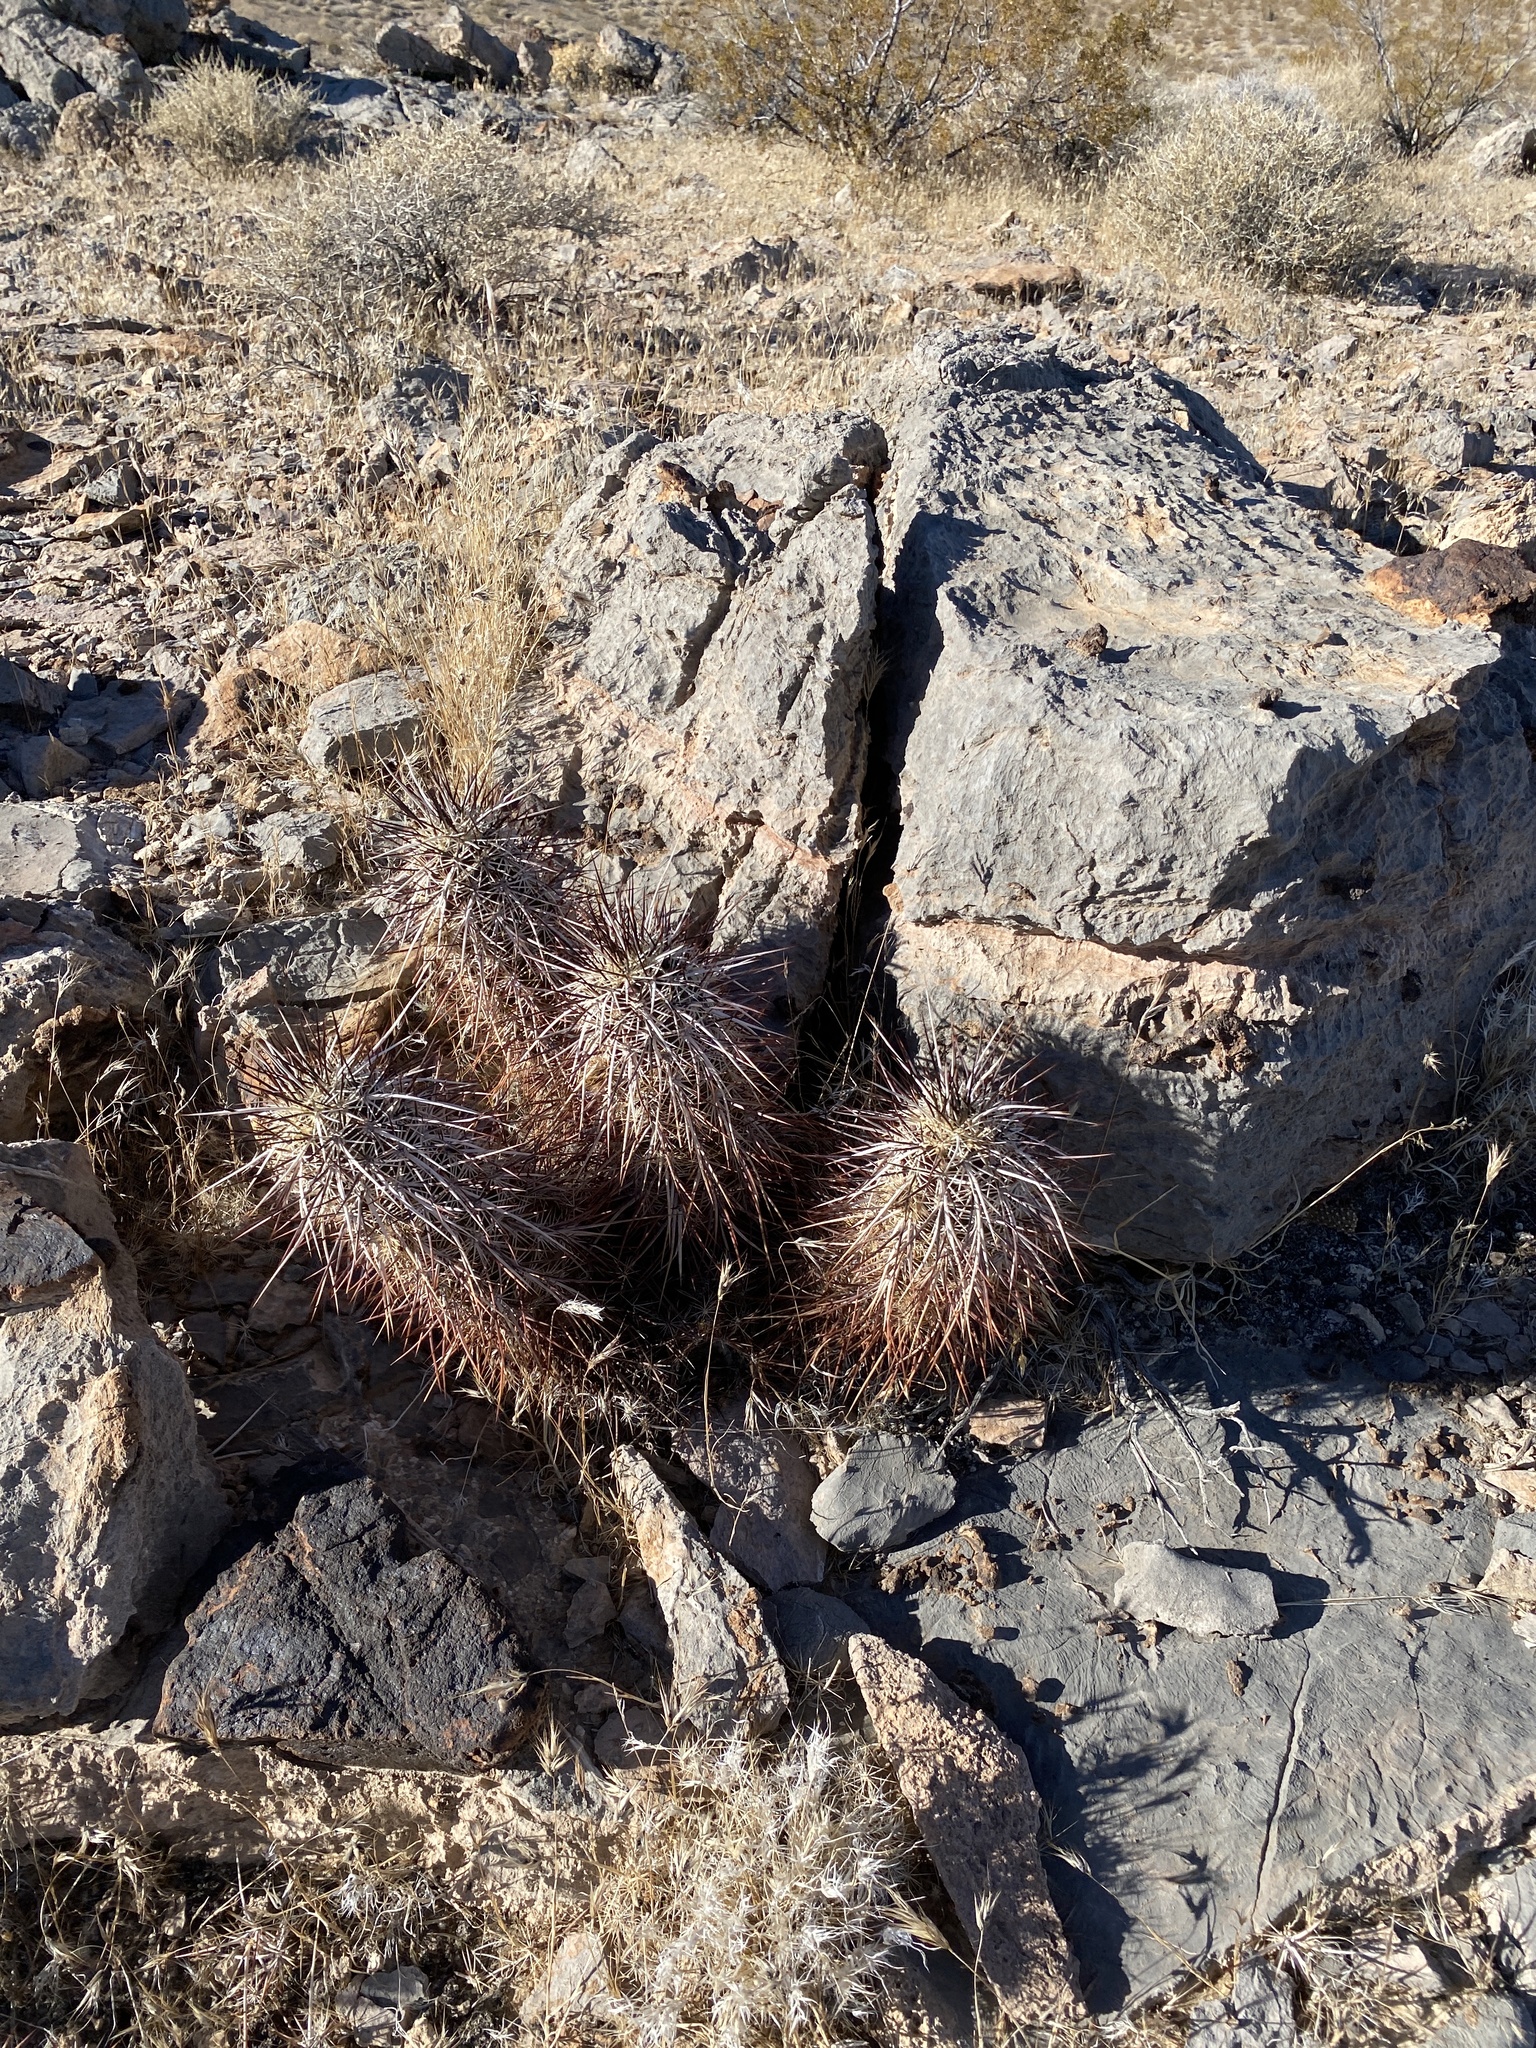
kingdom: Plantae
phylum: Tracheophyta
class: Magnoliopsida
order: Caryophyllales
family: Cactaceae
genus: Echinocereus
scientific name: Echinocereus engelmannii
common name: Engelmann's hedgehog cactus
